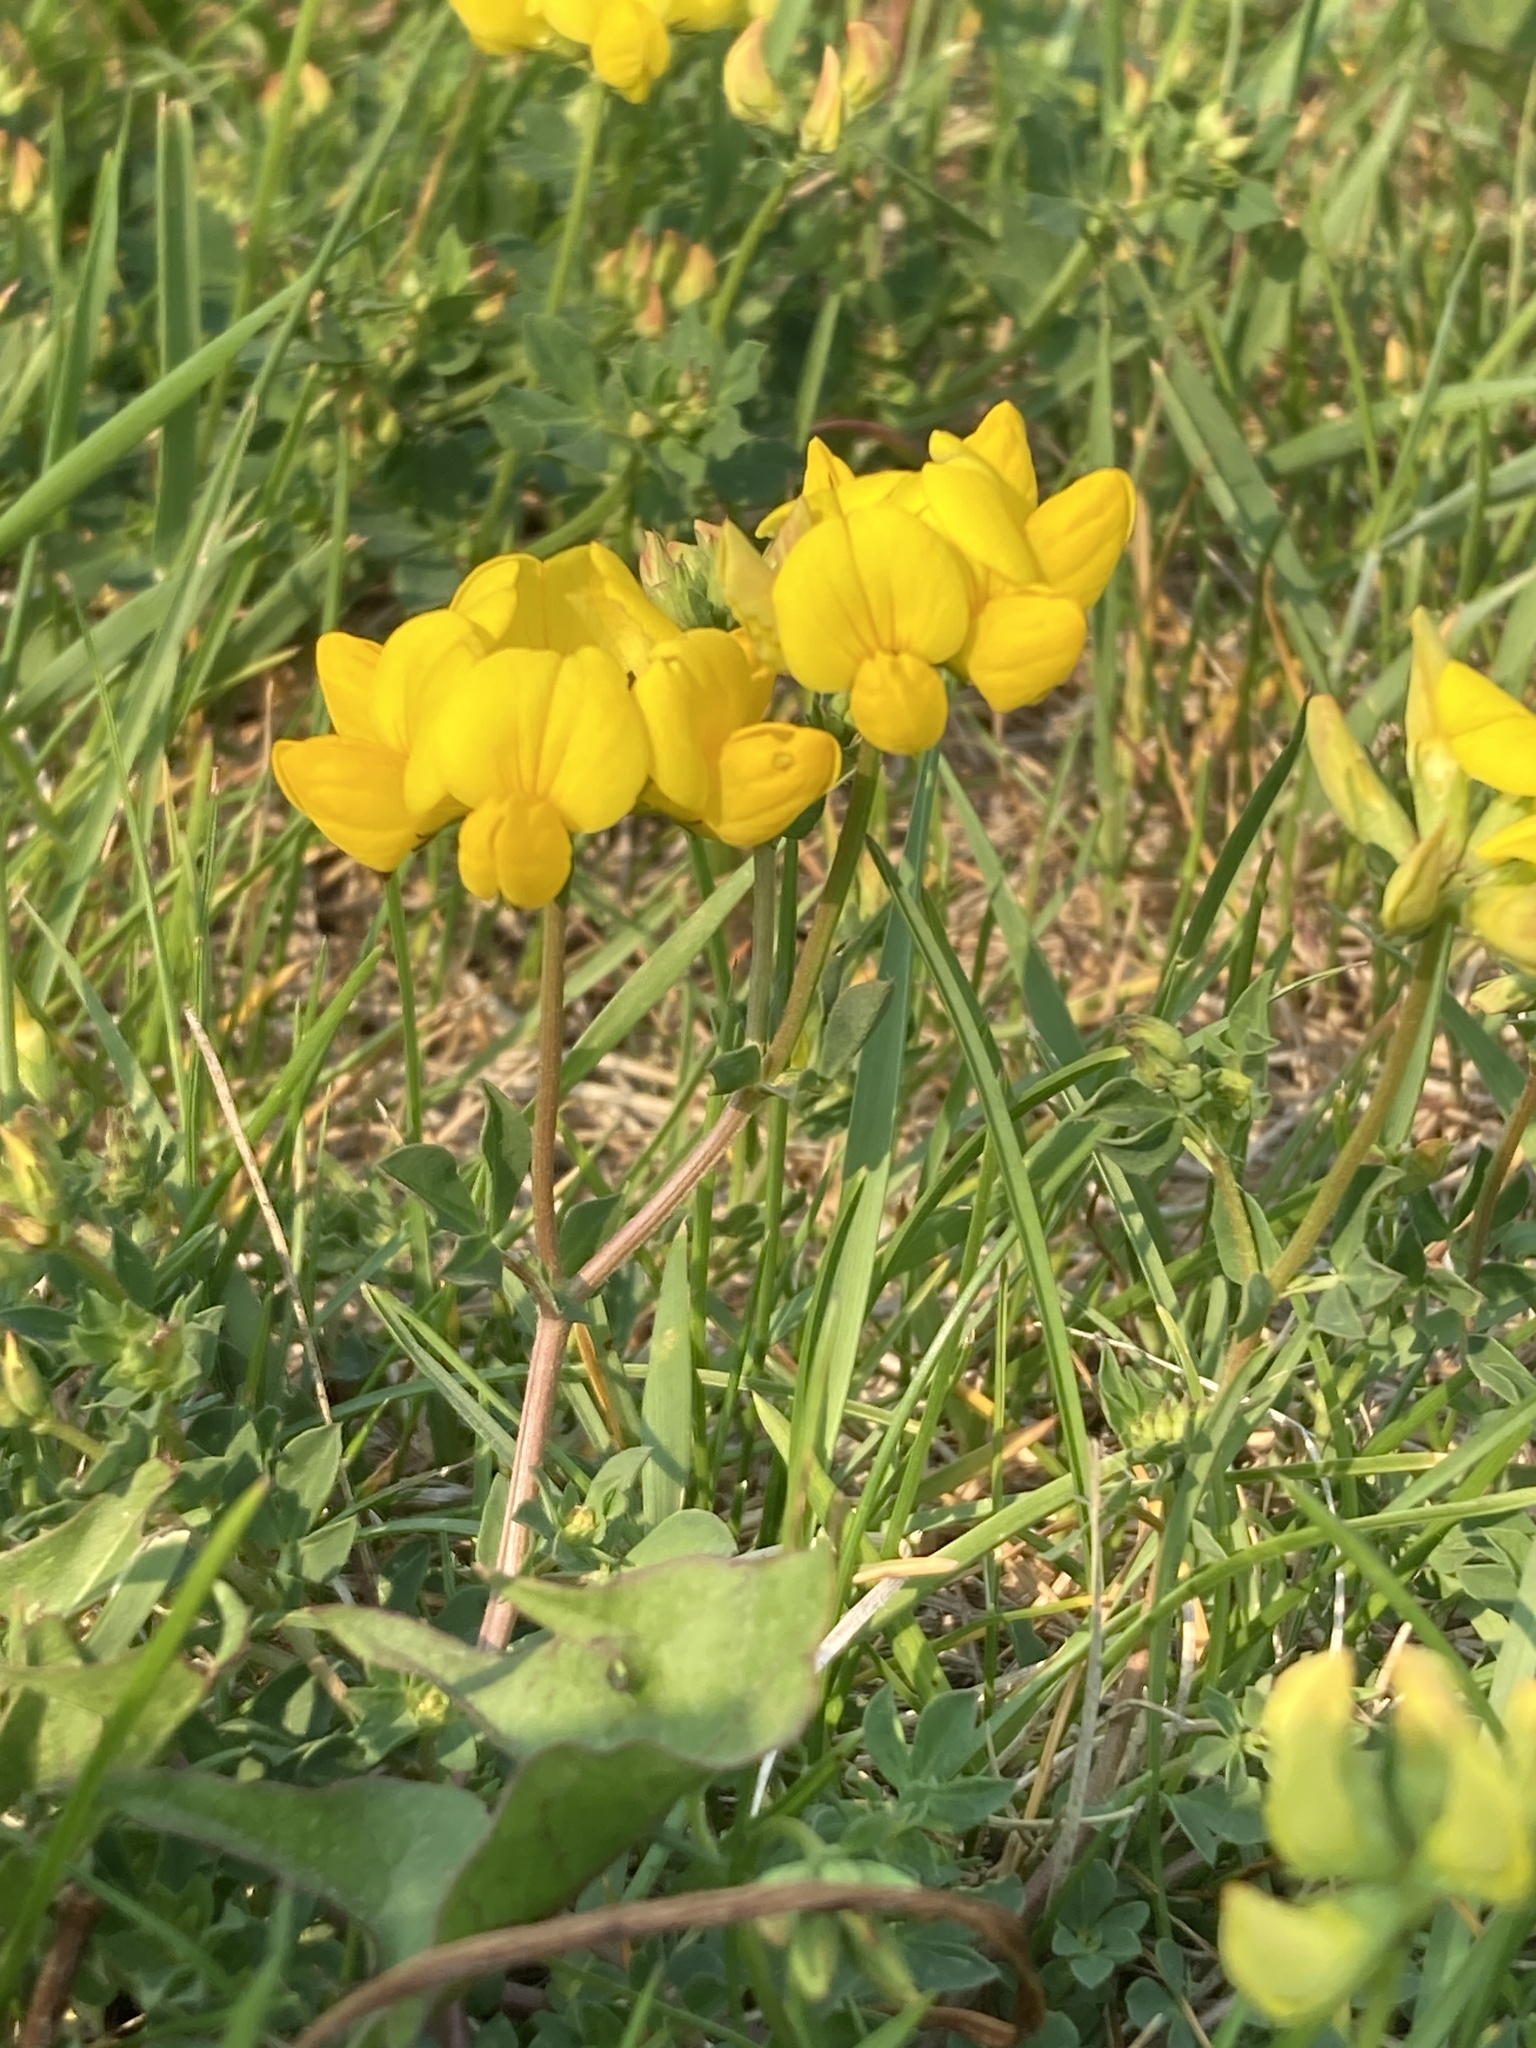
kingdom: Plantae
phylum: Tracheophyta
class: Magnoliopsida
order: Fabales
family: Fabaceae
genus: Lotus
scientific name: Lotus corniculatus
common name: Common bird's-foot-trefoil
